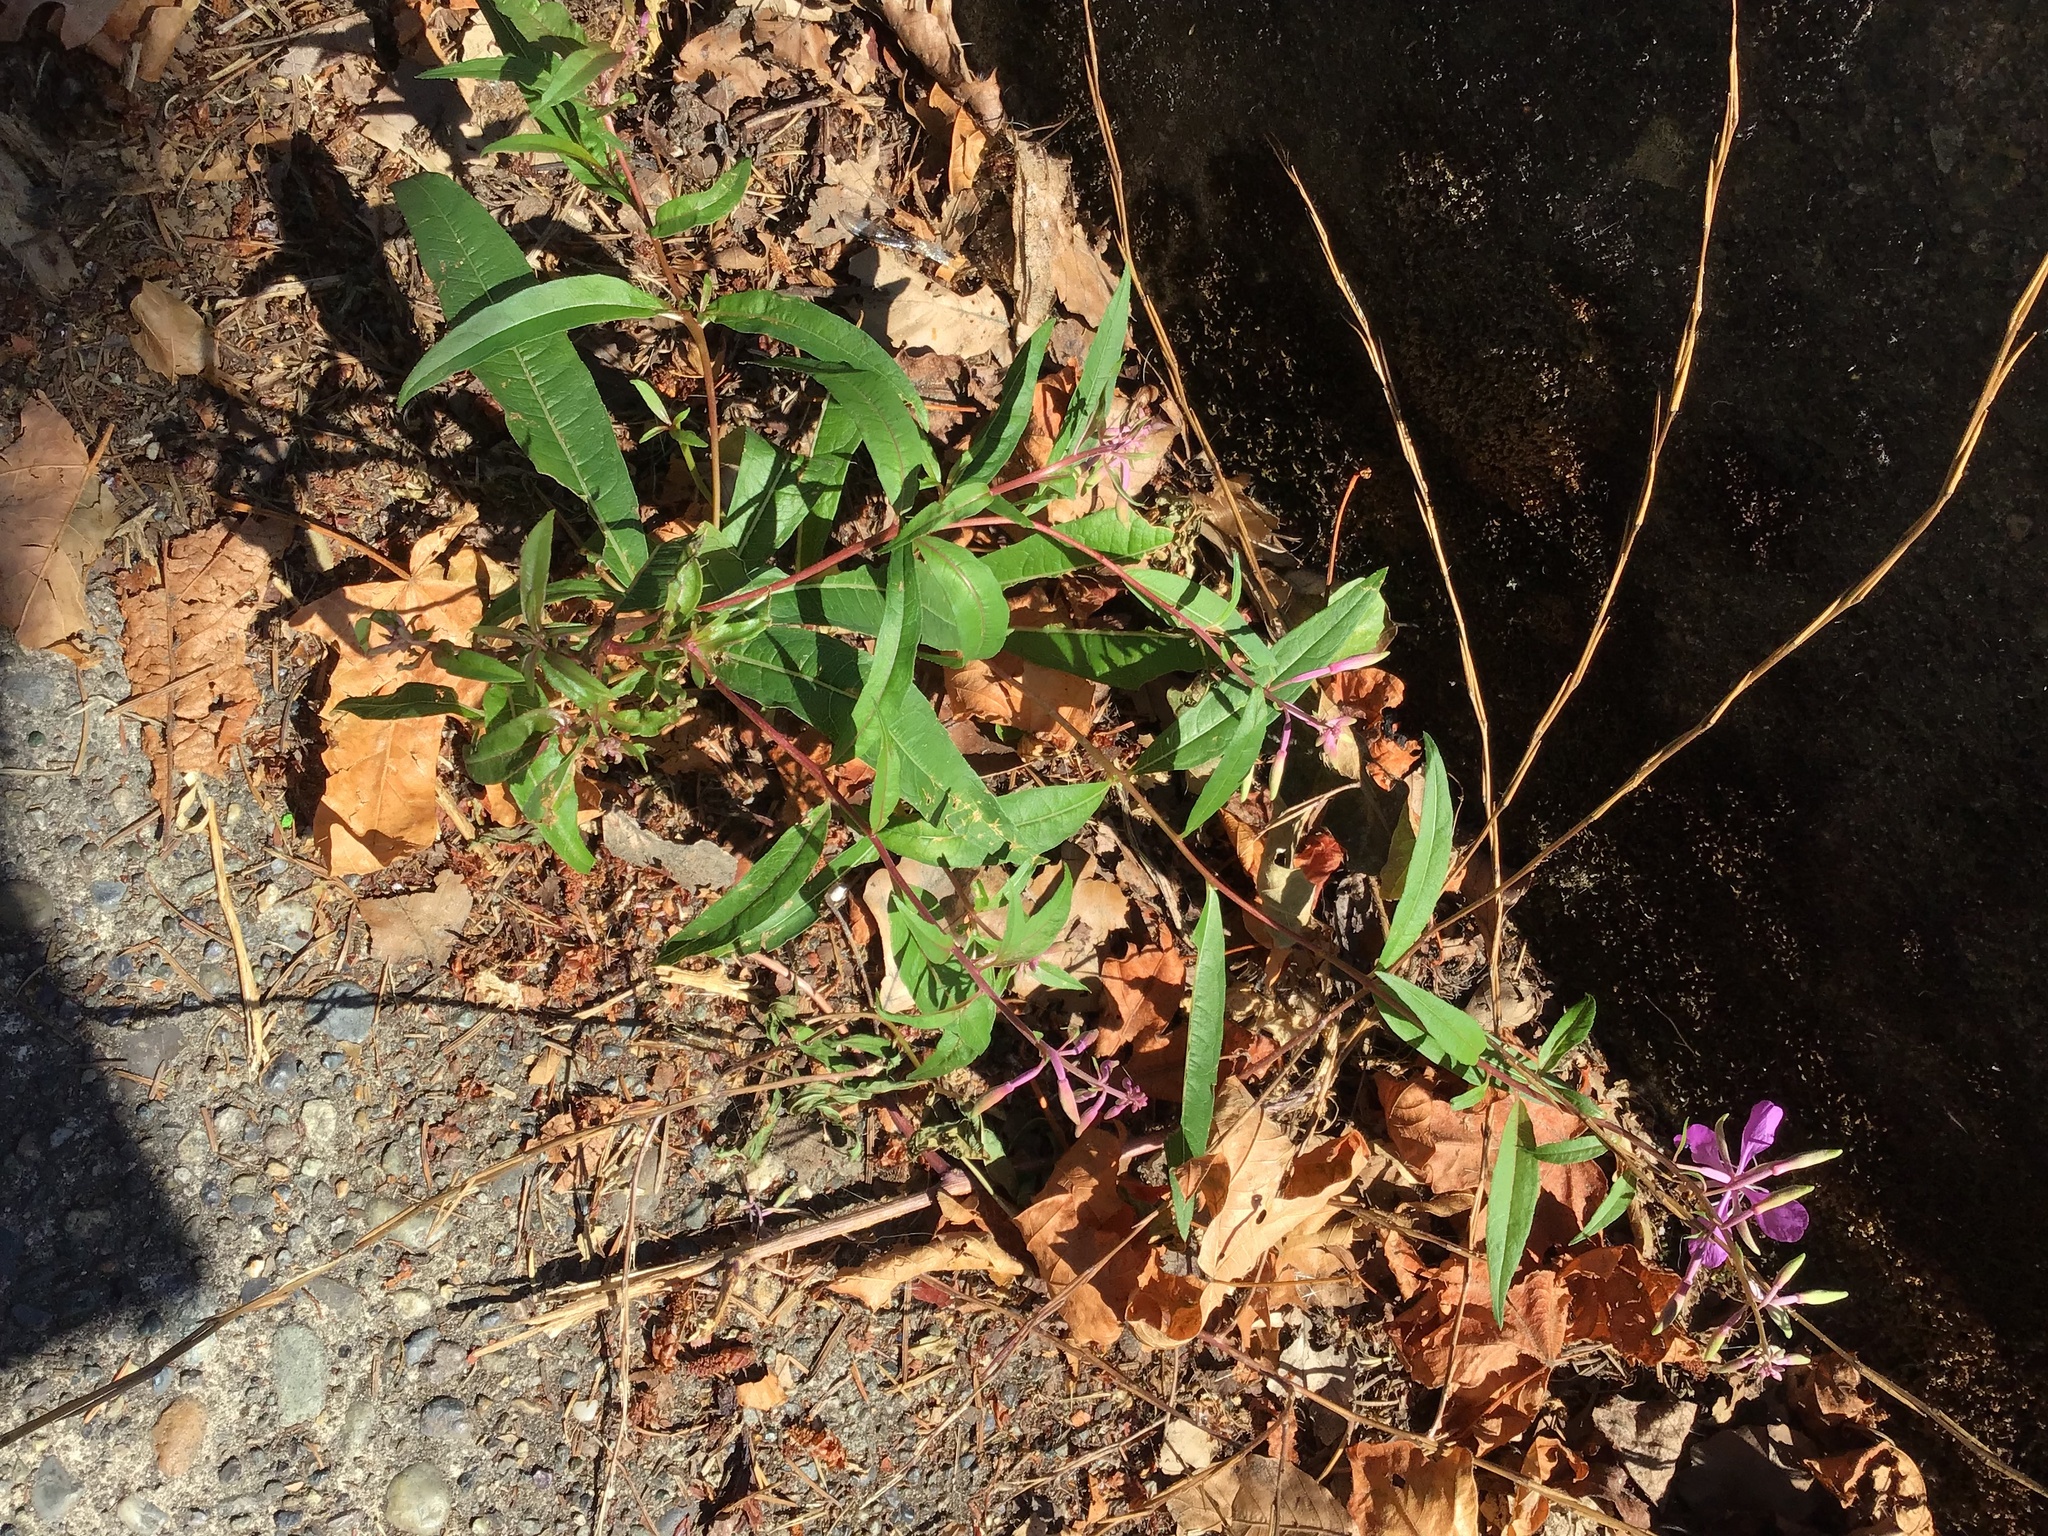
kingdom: Plantae
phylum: Tracheophyta
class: Magnoliopsida
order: Myrtales
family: Onagraceae
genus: Chamaenerion
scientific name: Chamaenerion angustifolium
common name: Fireweed
